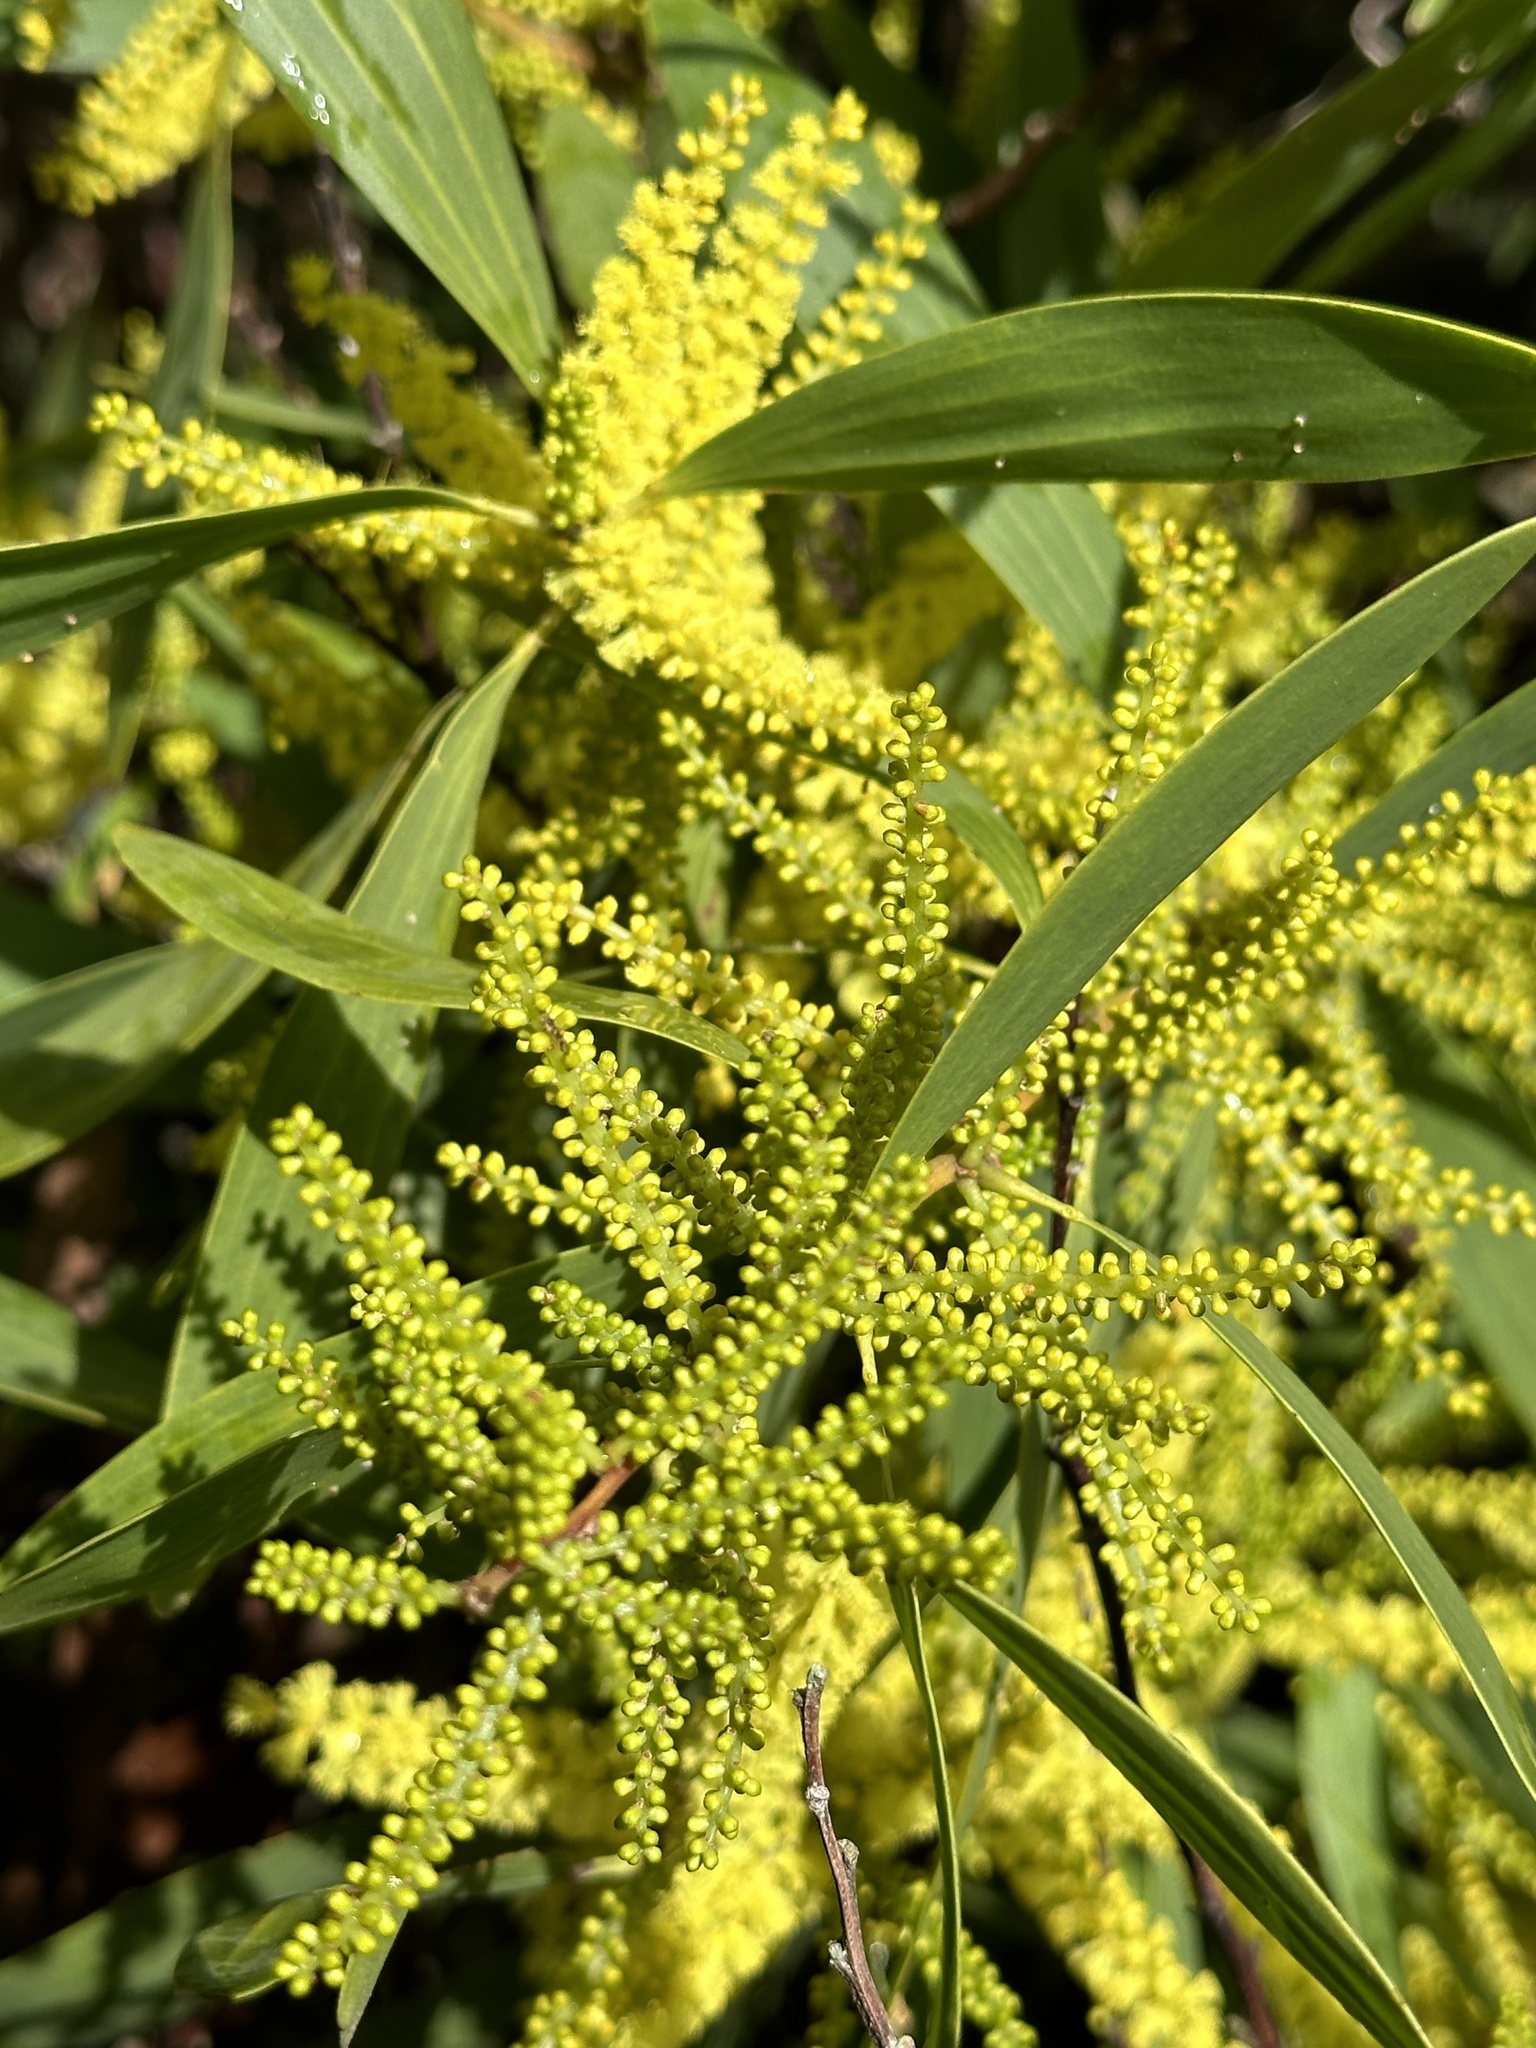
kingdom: Plantae
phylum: Tracheophyta
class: Magnoliopsida
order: Fabales
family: Fabaceae
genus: Acacia
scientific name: Acacia longifolia
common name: Sydney golden wattle
